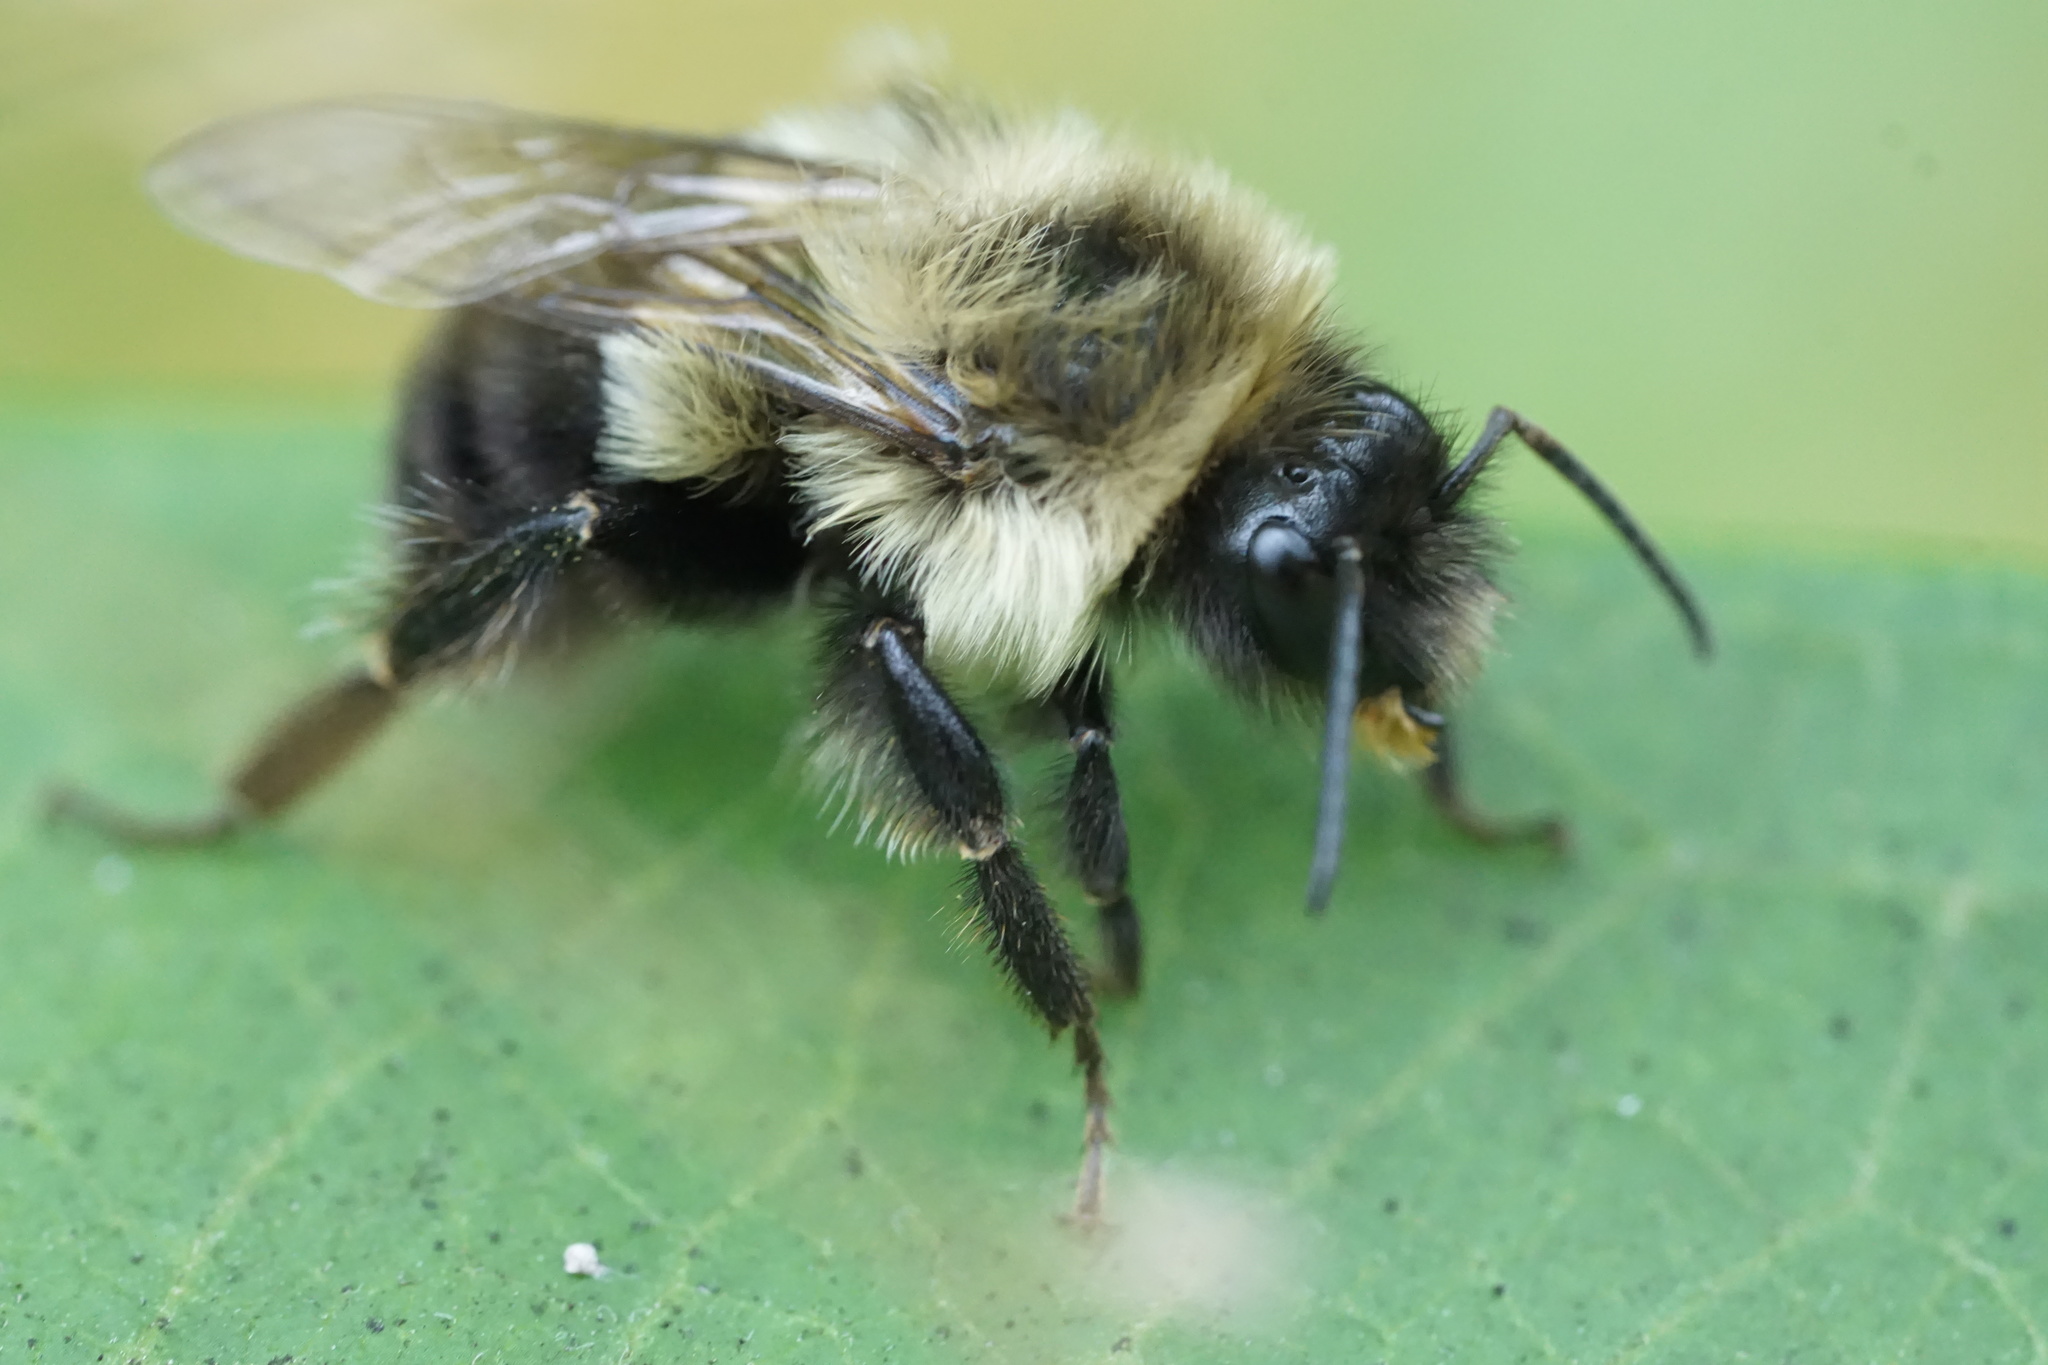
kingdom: Animalia
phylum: Arthropoda
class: Insecta
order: Hymenoptera
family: Apidae
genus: Bombus
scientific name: Bombus impatiens
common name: Common eastern bumble bee
